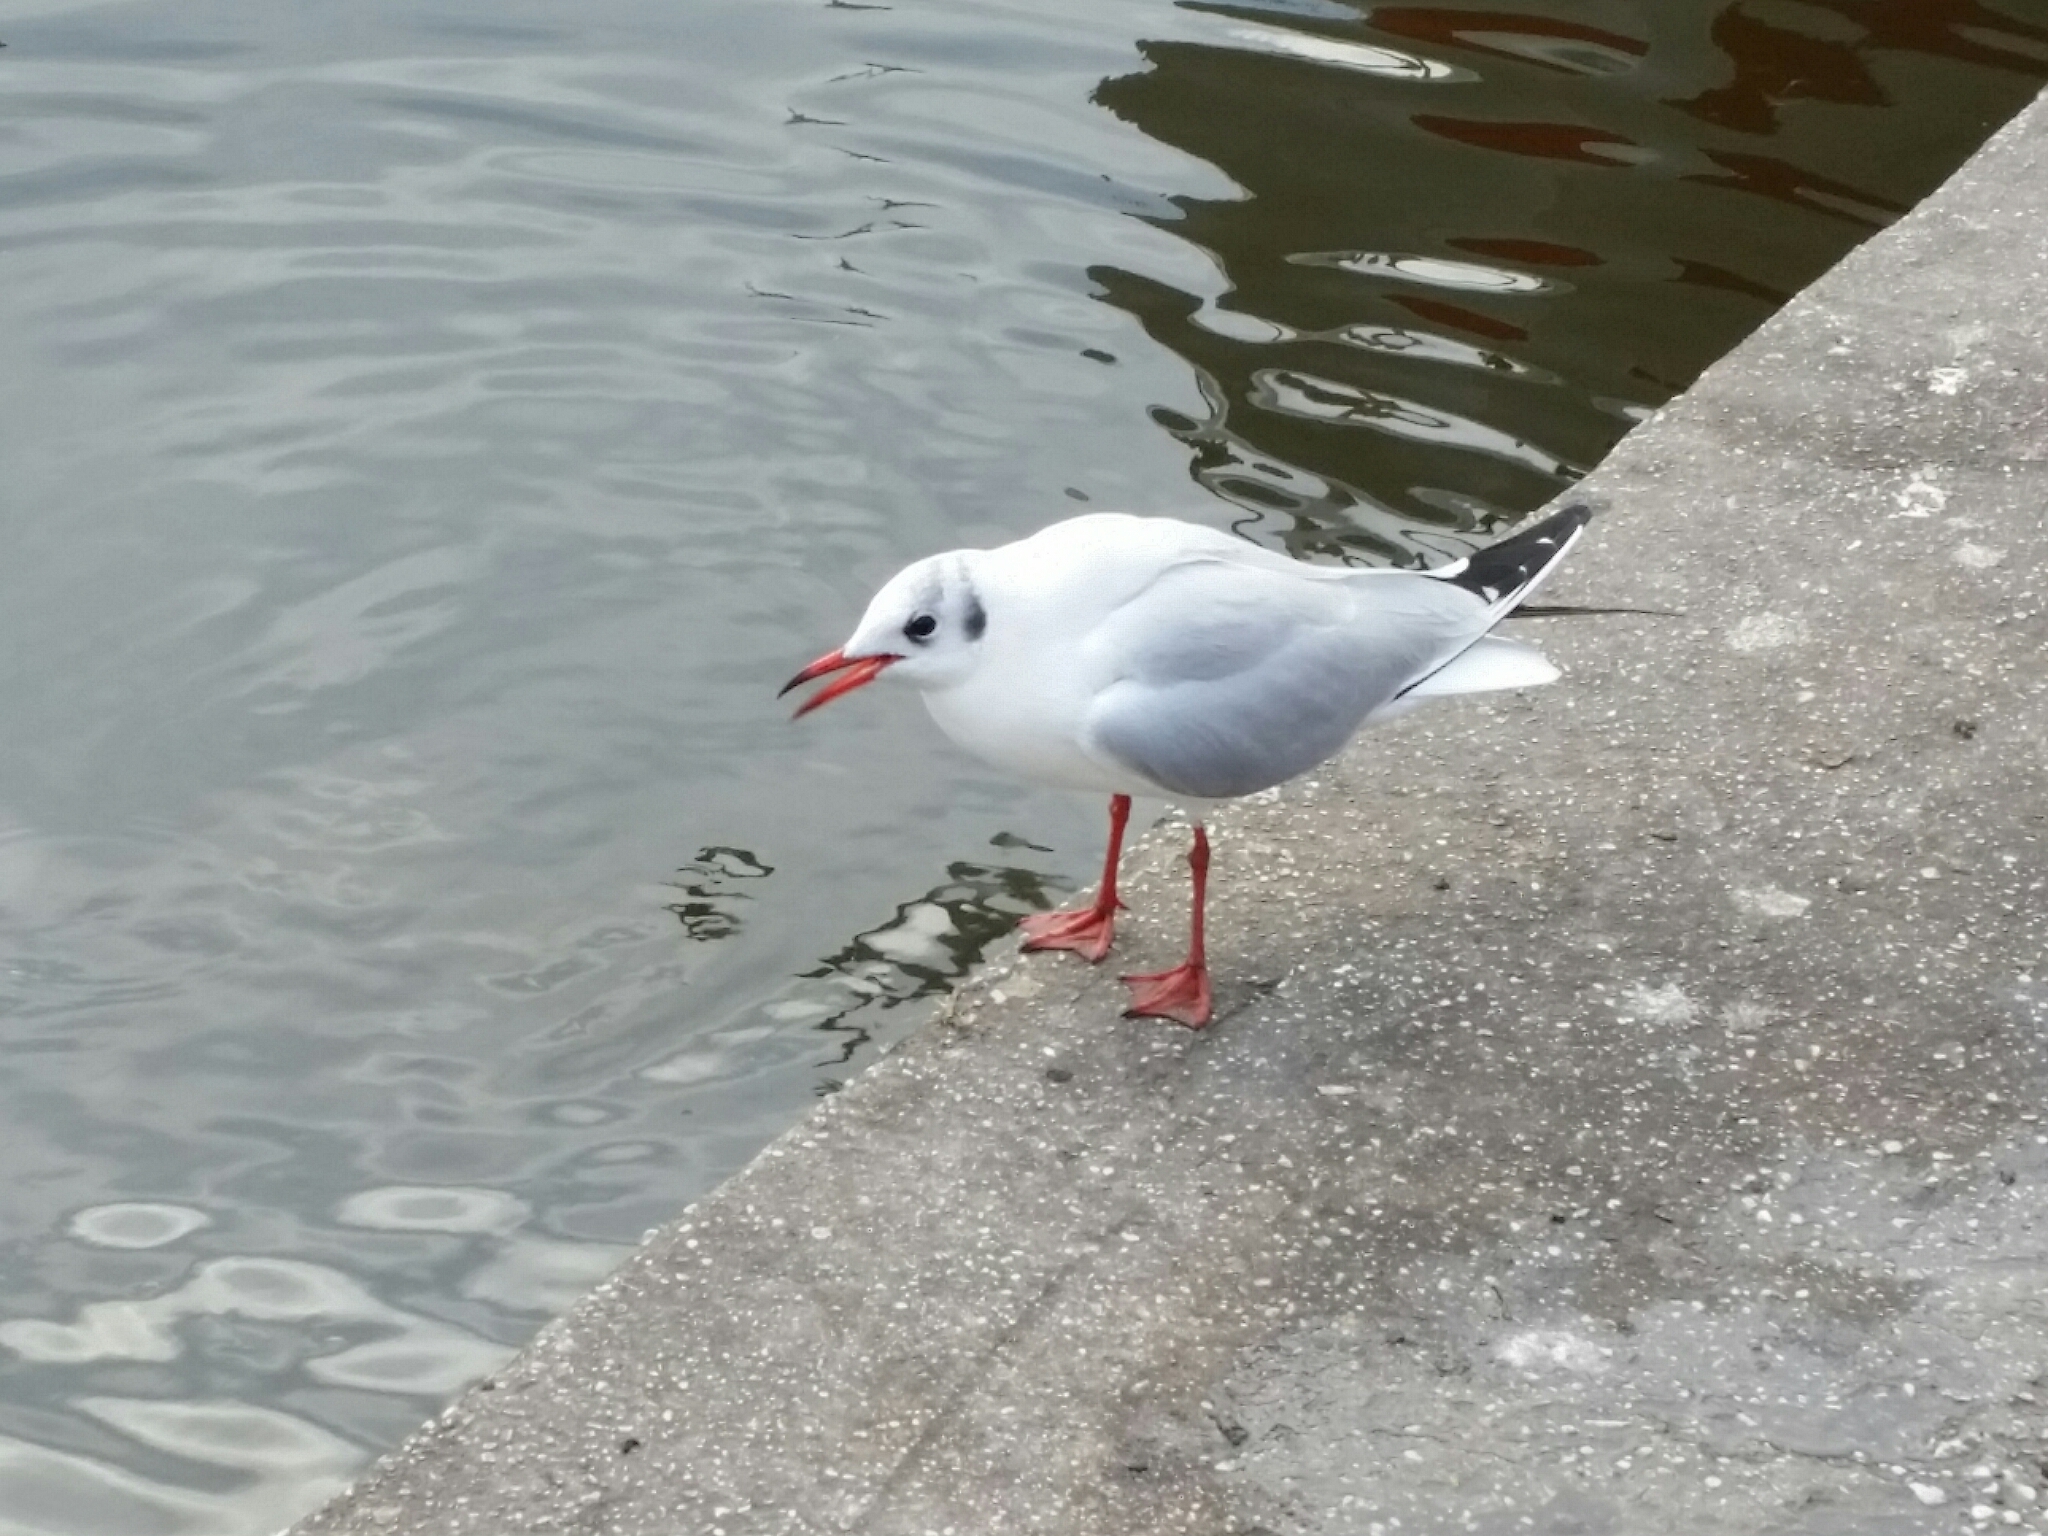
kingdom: Animalia
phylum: Chordata
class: Aves
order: Charadriiformes
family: Laridae
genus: Chroicocephalus
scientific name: Chroicocephalus ridibundus
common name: Black-headed gull
